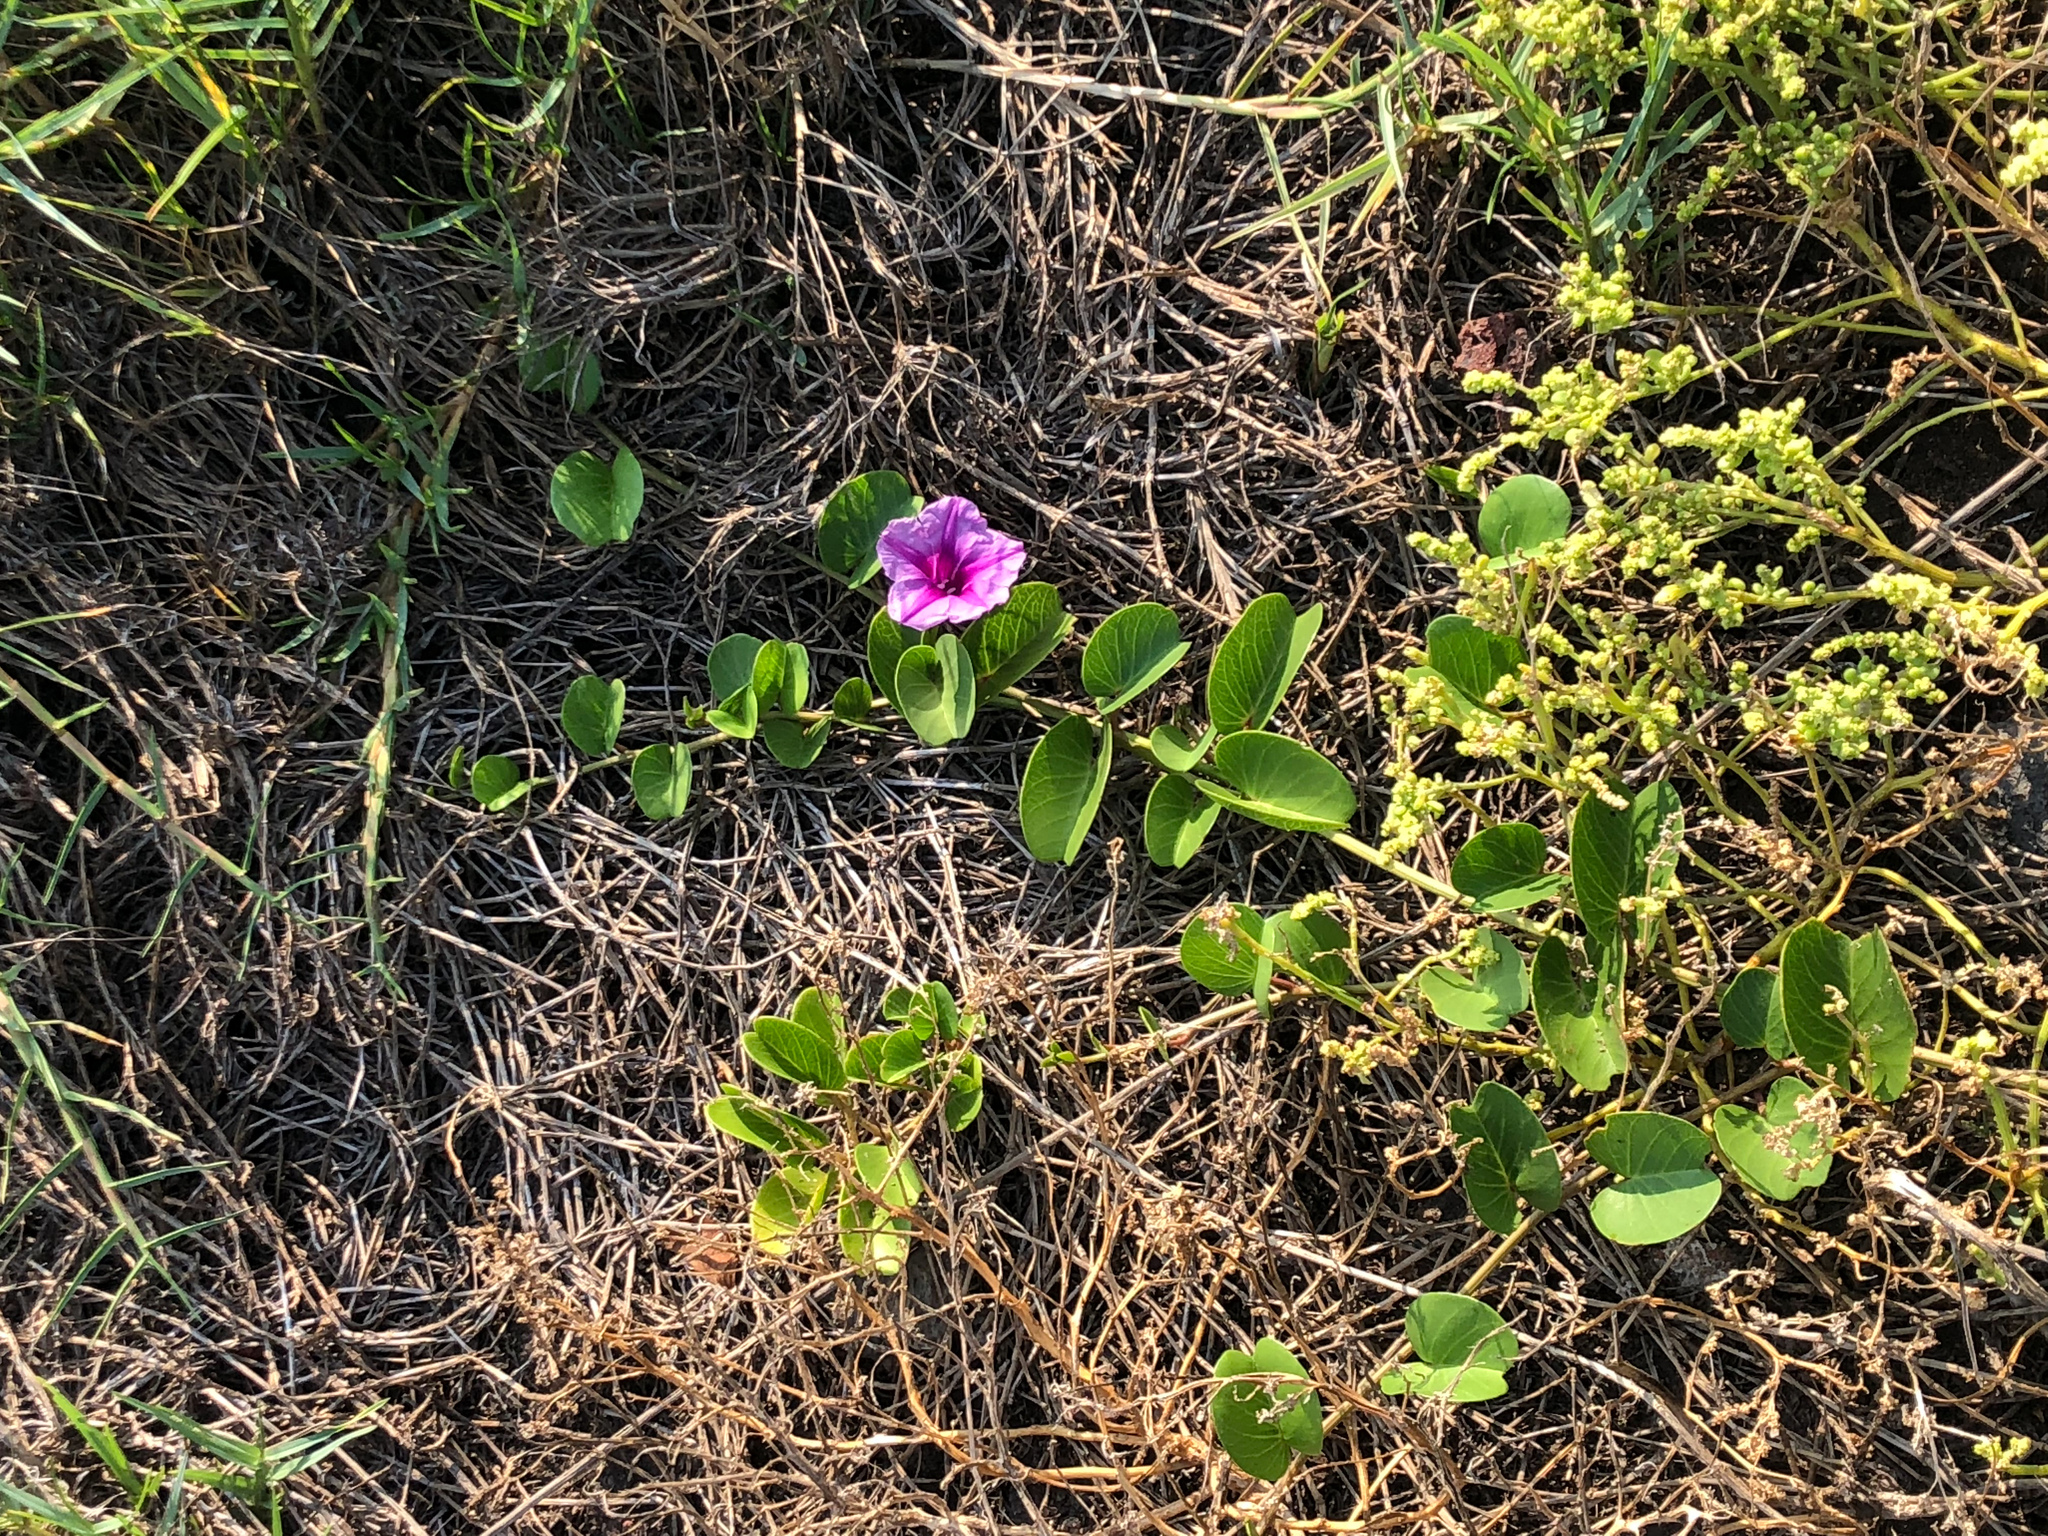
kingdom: Plantae
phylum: Tracheophyta
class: Magnoliopsida
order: Solanales
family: Convolvulaceae
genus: Ipomoea
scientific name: Ipomoea pes-caprae
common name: Beach morning glory
